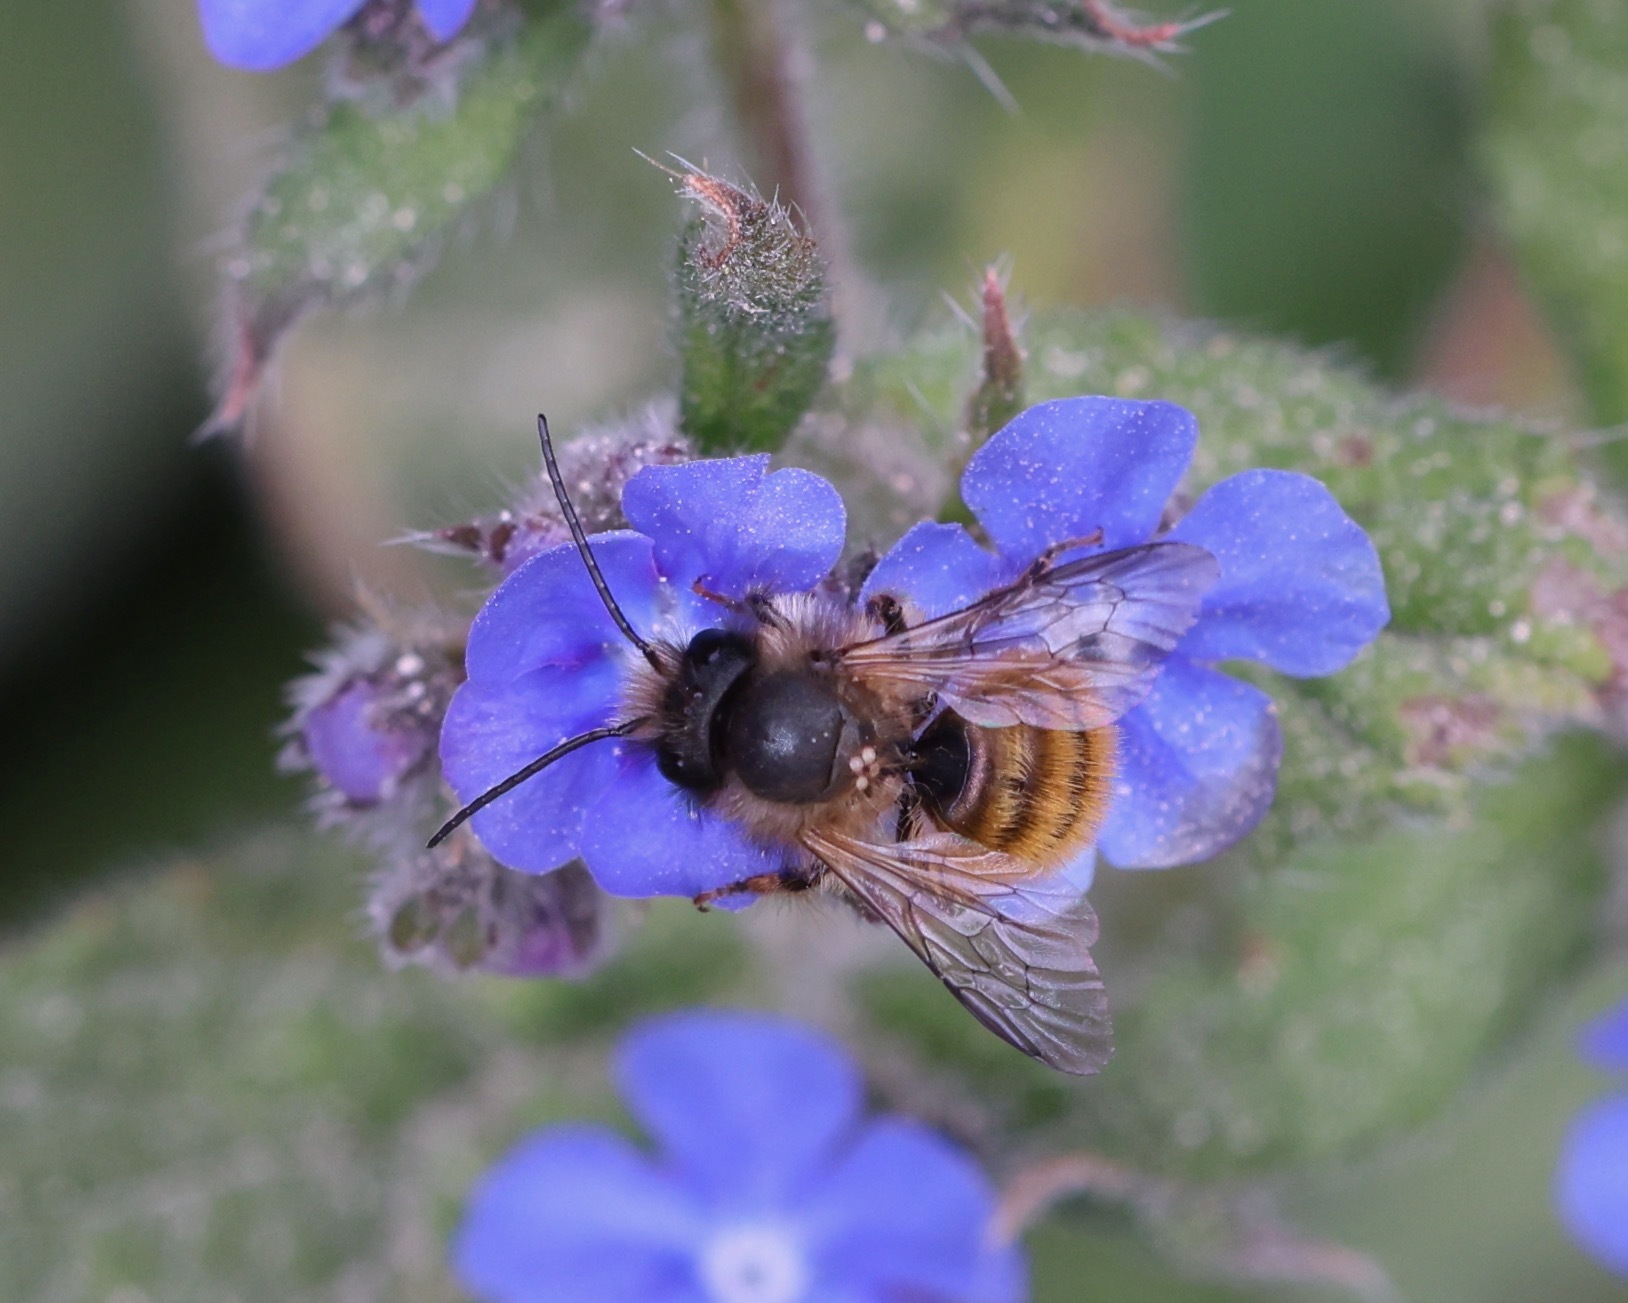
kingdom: Animalia
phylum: Arthropoda
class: Insecta
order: Hymenoptera
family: Megachilidae
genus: Osmia
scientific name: Osmia bicornis
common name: Red mason bee
